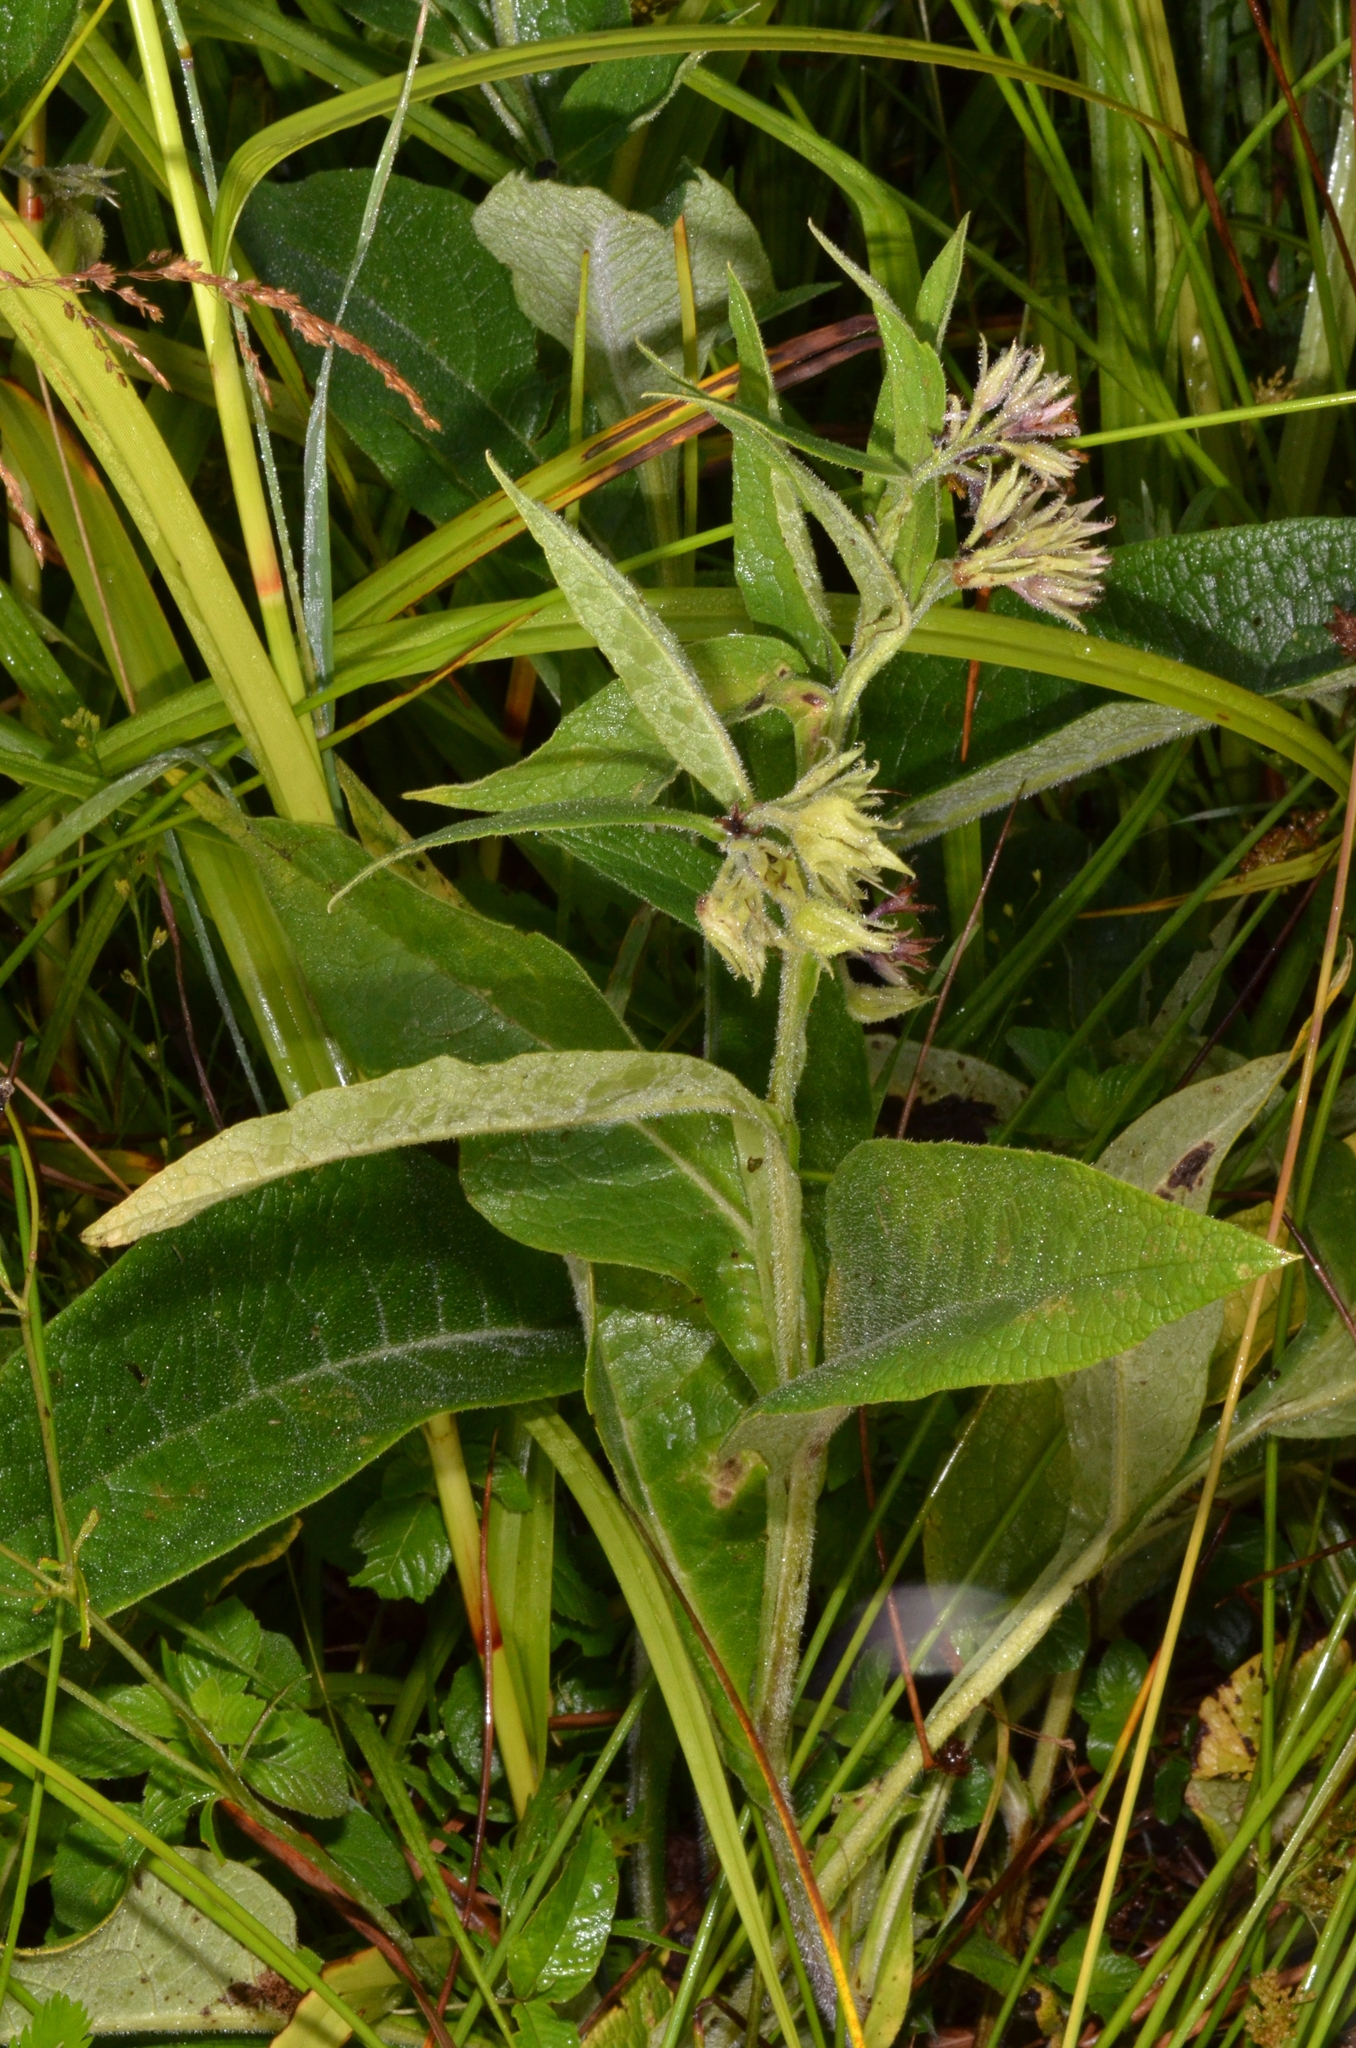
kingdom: Plantae
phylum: Tracheophyta
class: Magnoliopsida
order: Boraginales
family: Boraginaceae
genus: Symphytum
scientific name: Symphytum officinale
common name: Common comfrey
